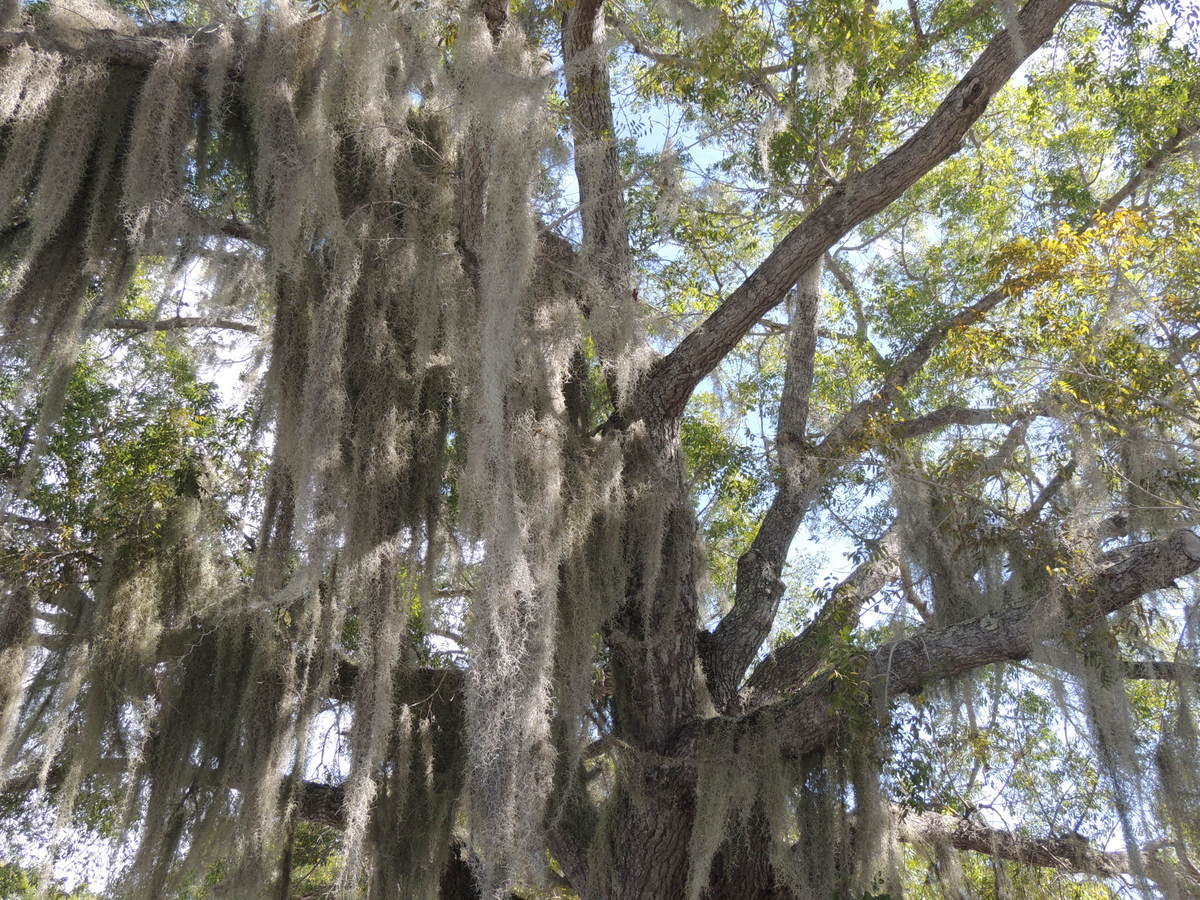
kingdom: Plantae
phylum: Tracheophyta
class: Liliopsida
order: Poales
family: Bromeliaceae
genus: Tillandsia
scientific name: Tillandsia usneoides
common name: Spanish moss
